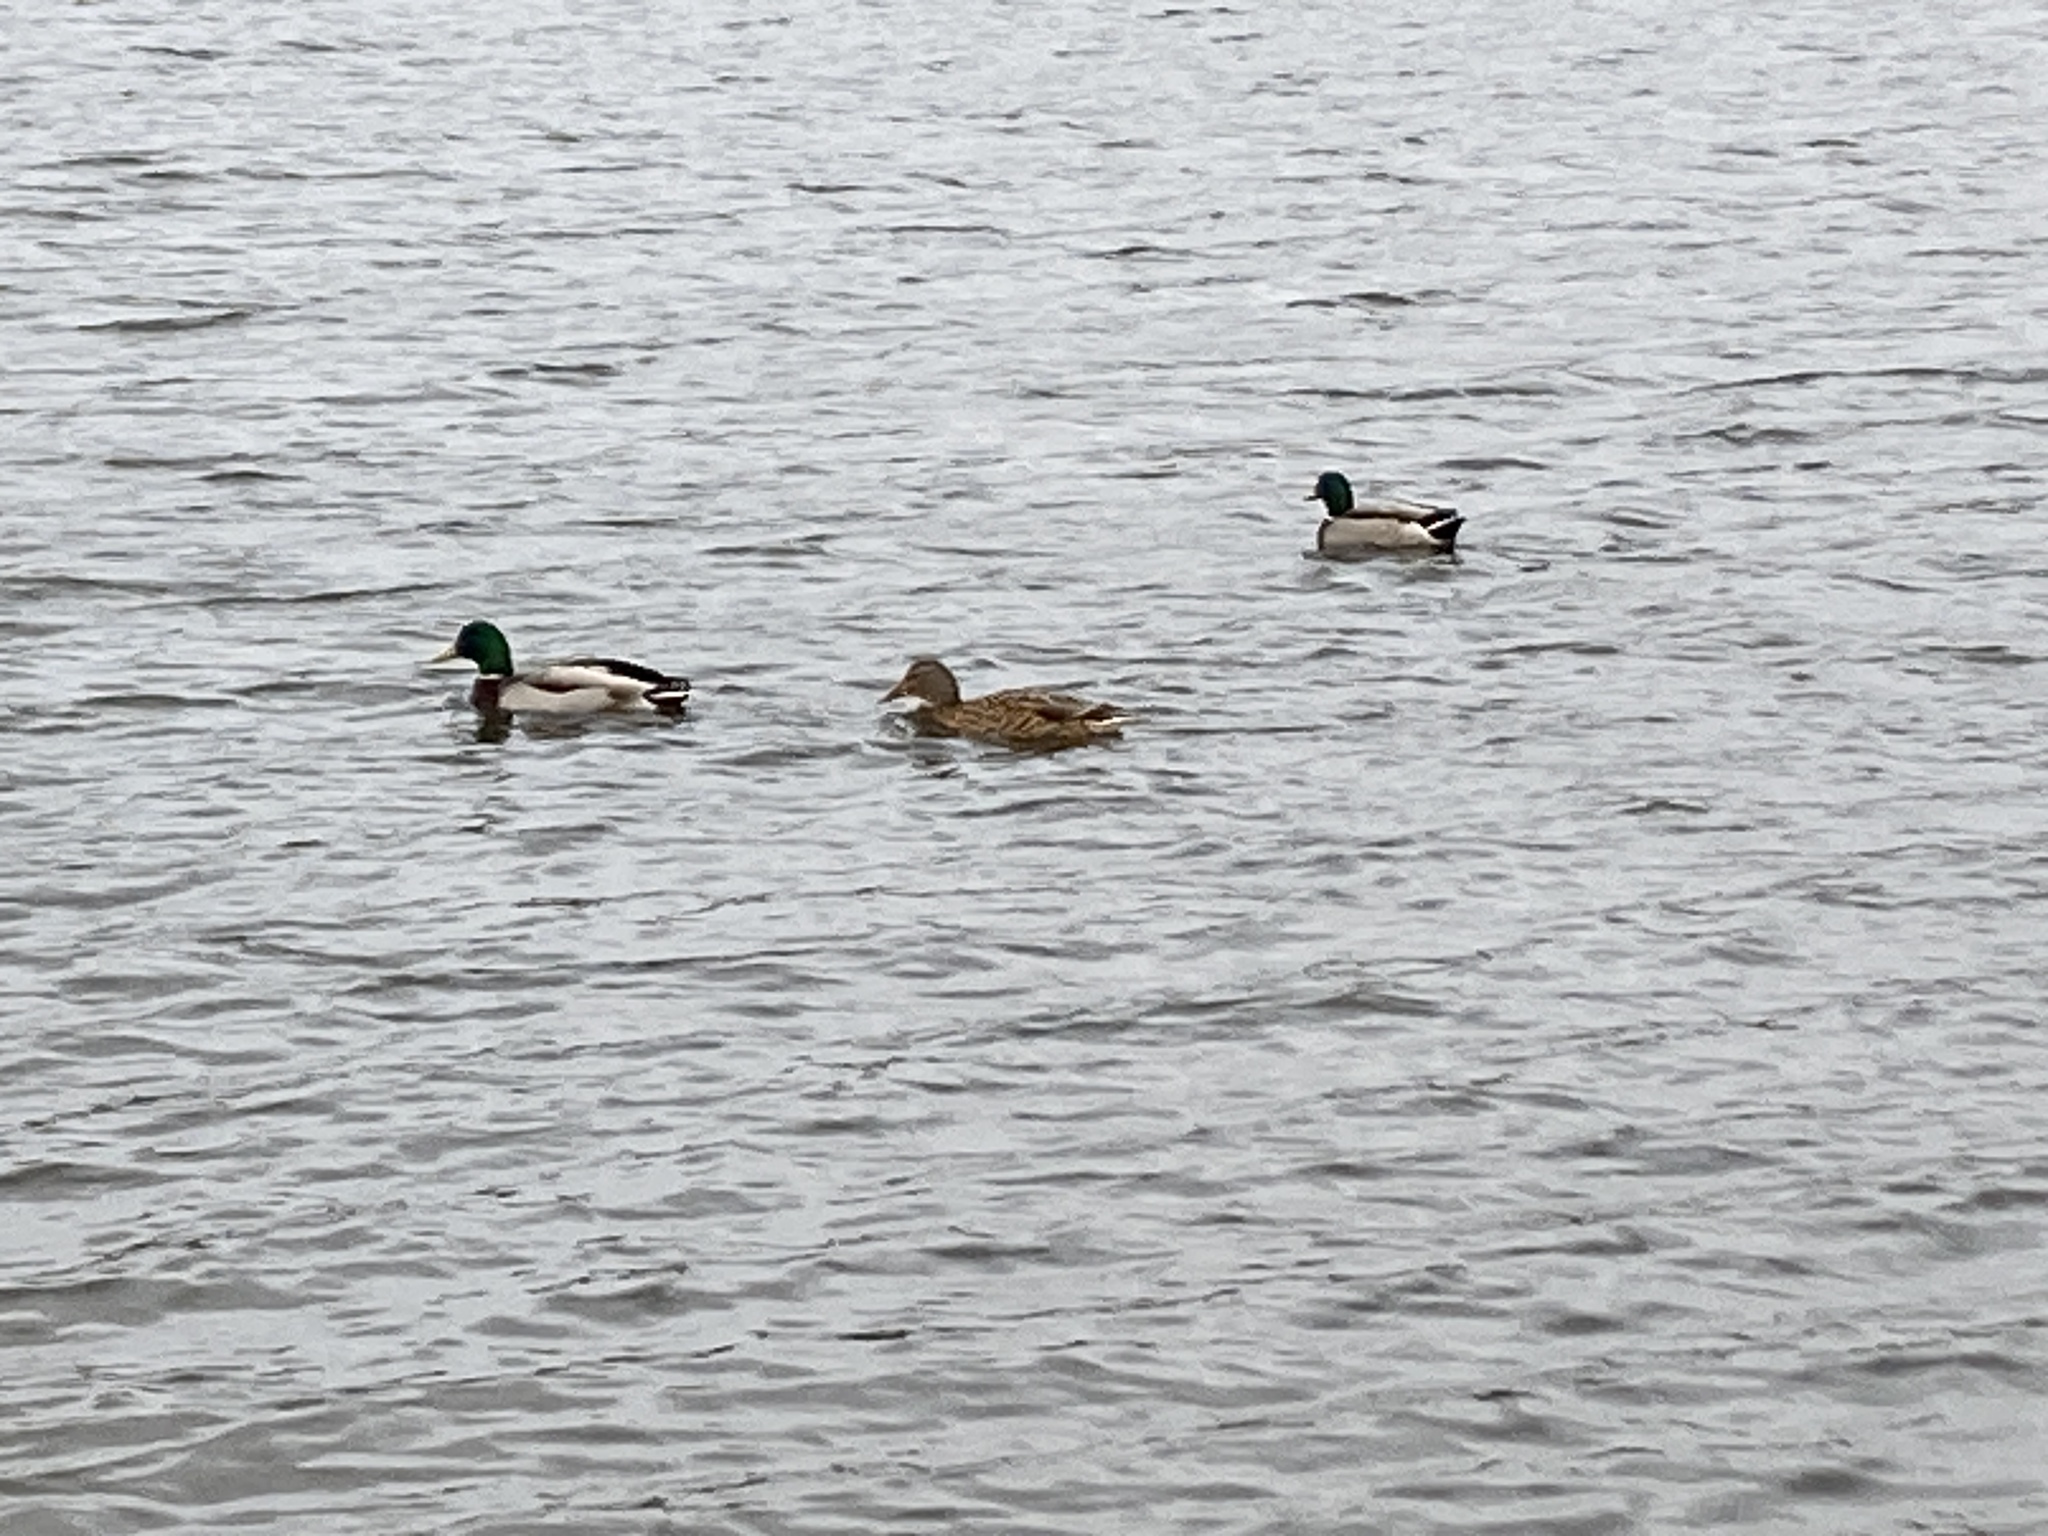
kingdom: Animalia
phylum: Chordata
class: Aves
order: Anseriformes
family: Anatidae
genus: Anas
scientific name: Anas platyrhynchos
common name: Mallard
